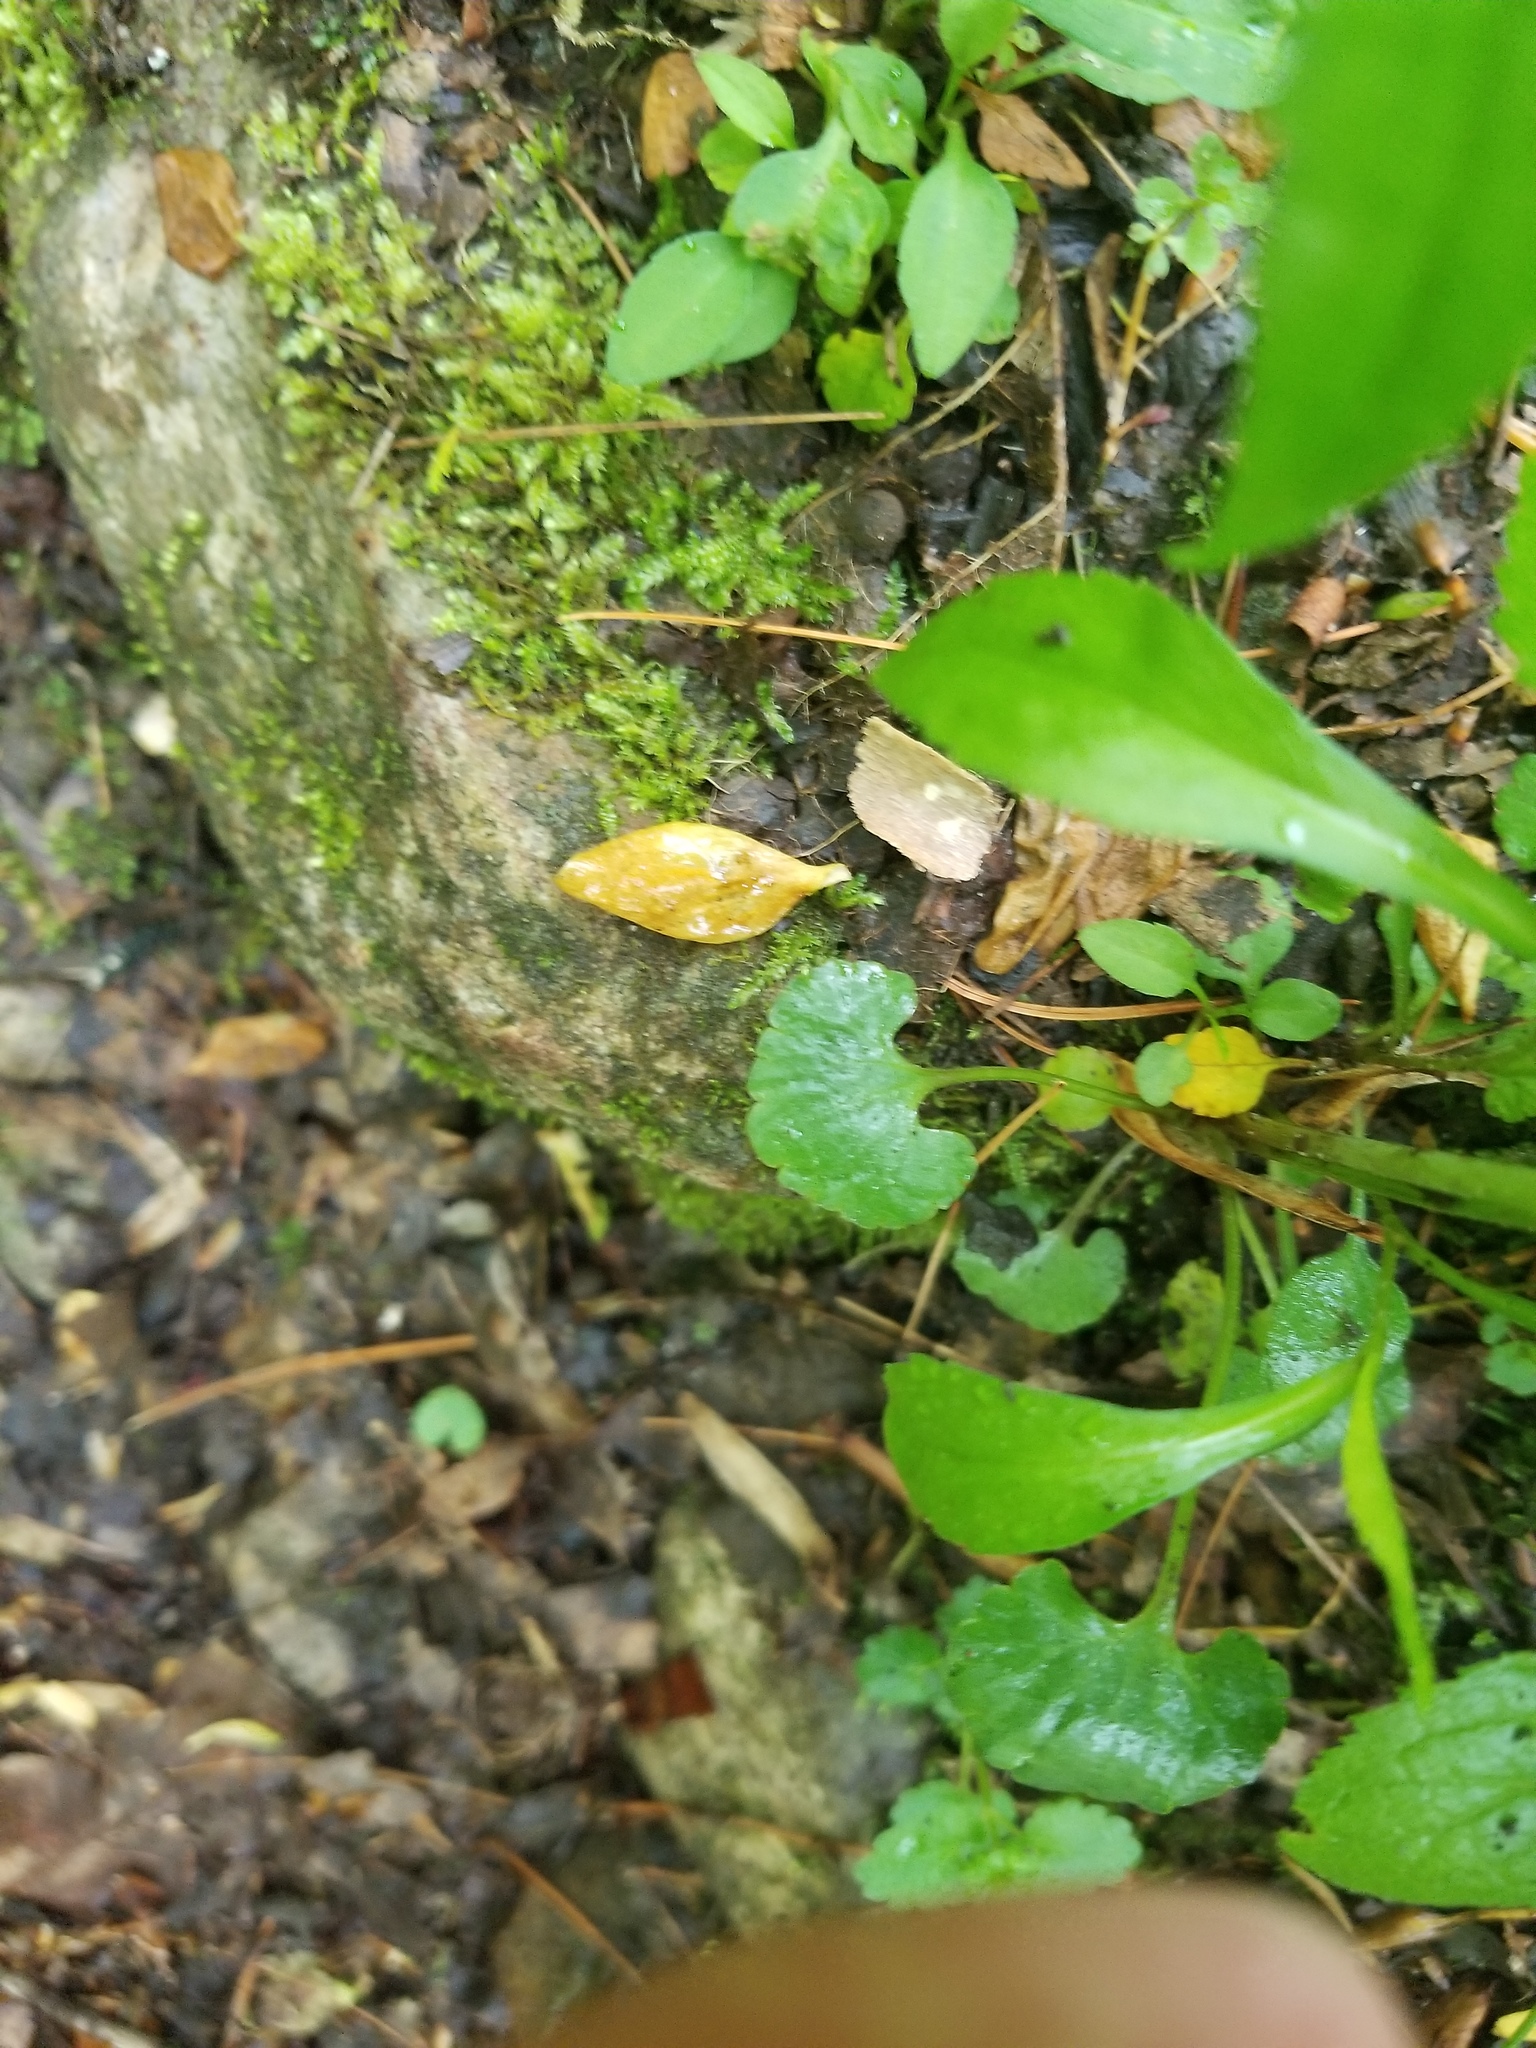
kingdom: Plantae
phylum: Tracheophyta
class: Magnoliopsida
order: Ranunculales
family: Ranunculaceae
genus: Ranunculus
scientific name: Ranunculus allegheniensis
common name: Allegheny mountain buttercup
